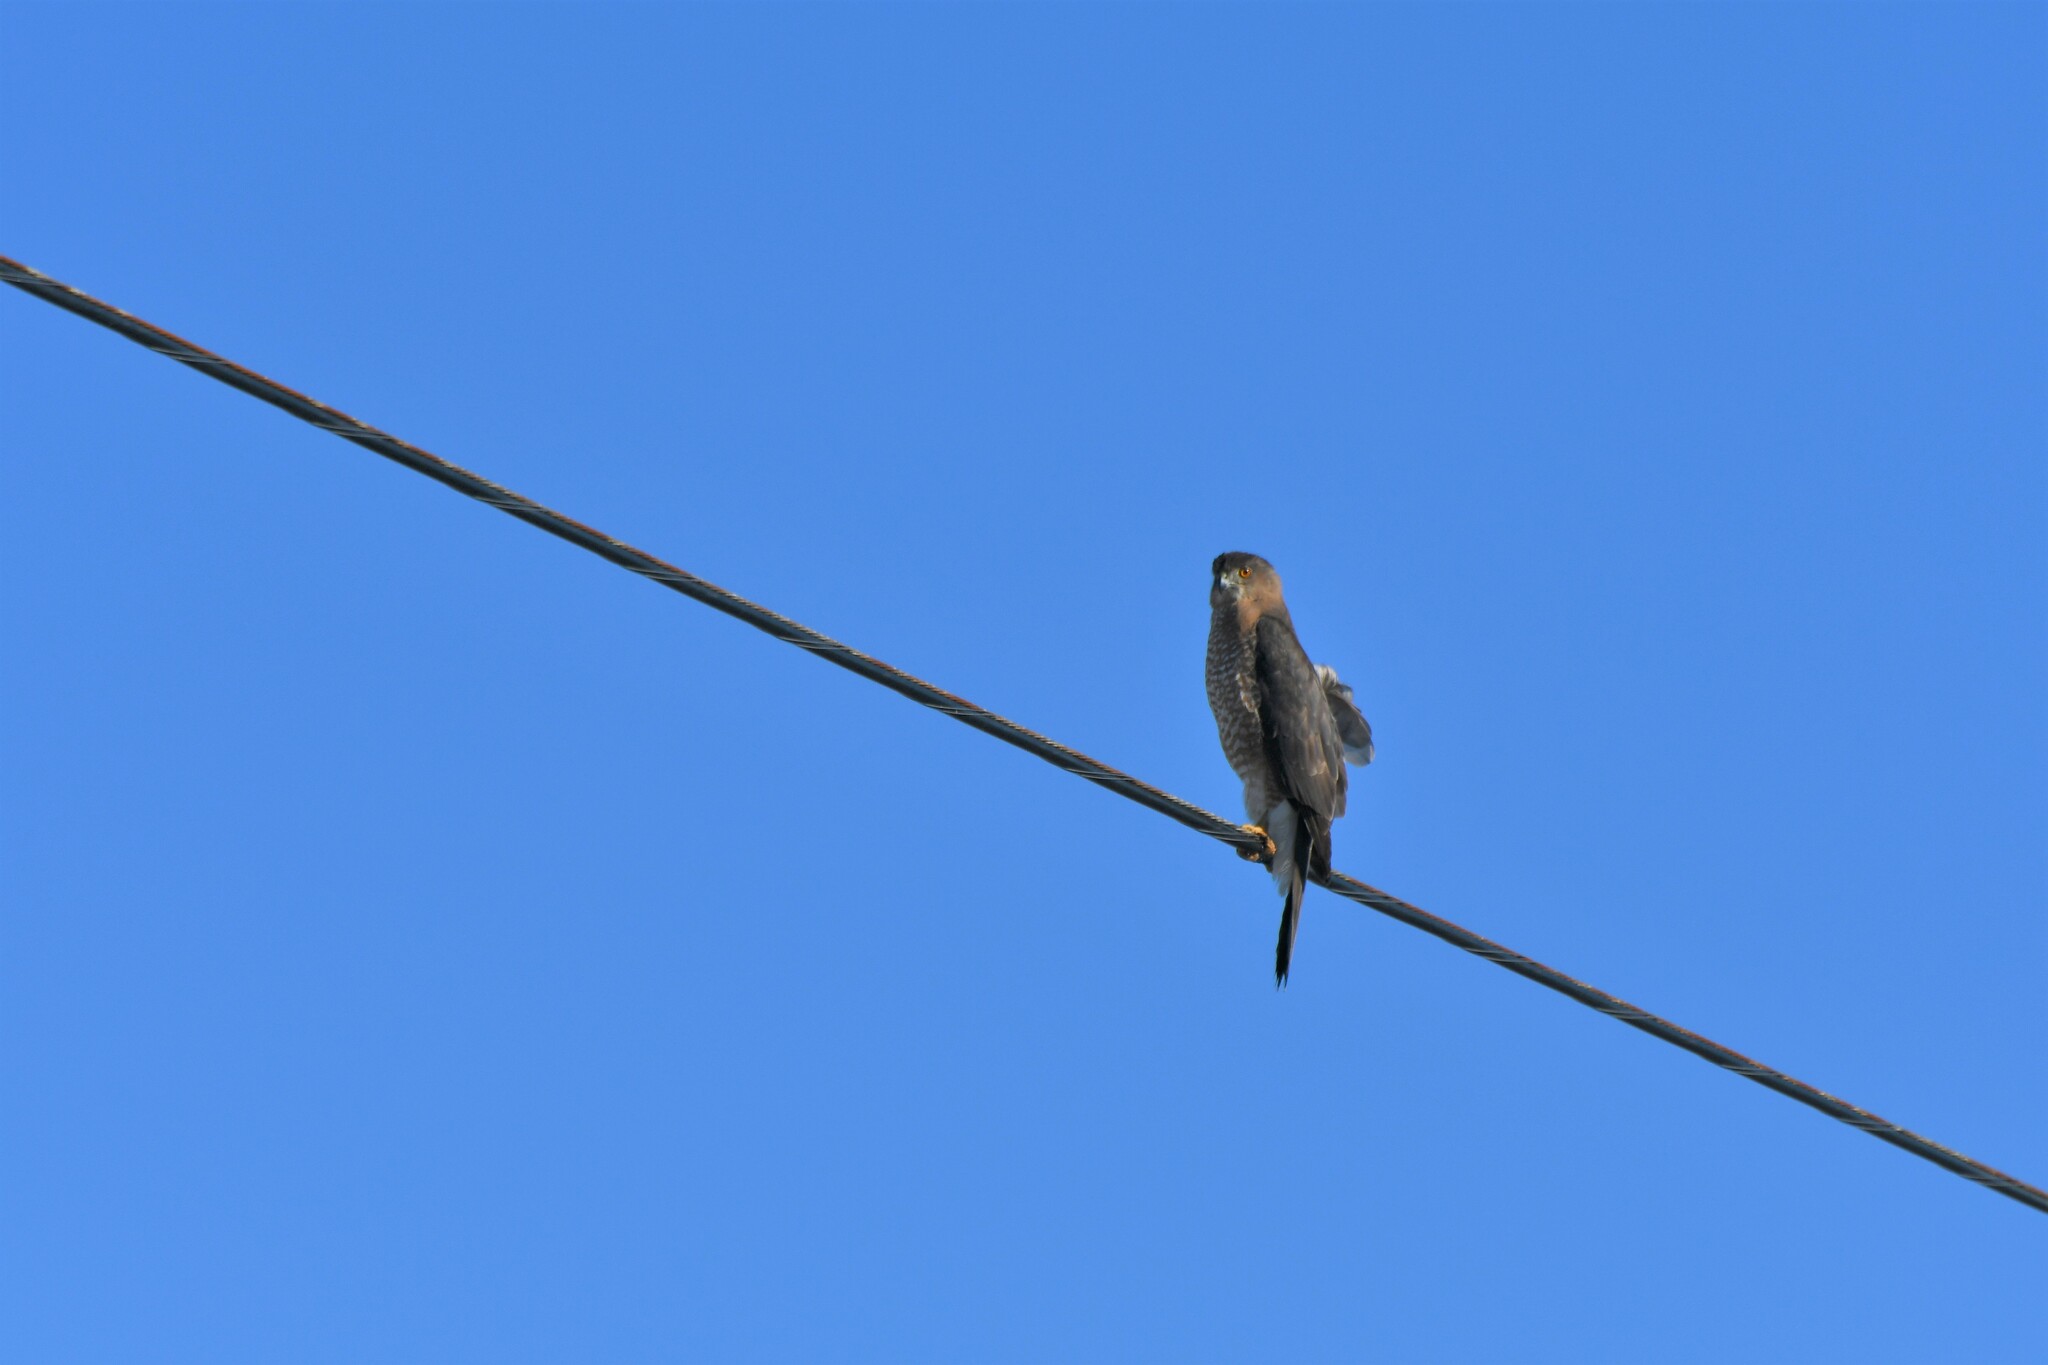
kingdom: Animalia
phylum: Chordata
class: Aves
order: Accipitriformes
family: Accipitridae
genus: Accipiter
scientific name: Accipiter cooperii
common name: Cooper's hawk
